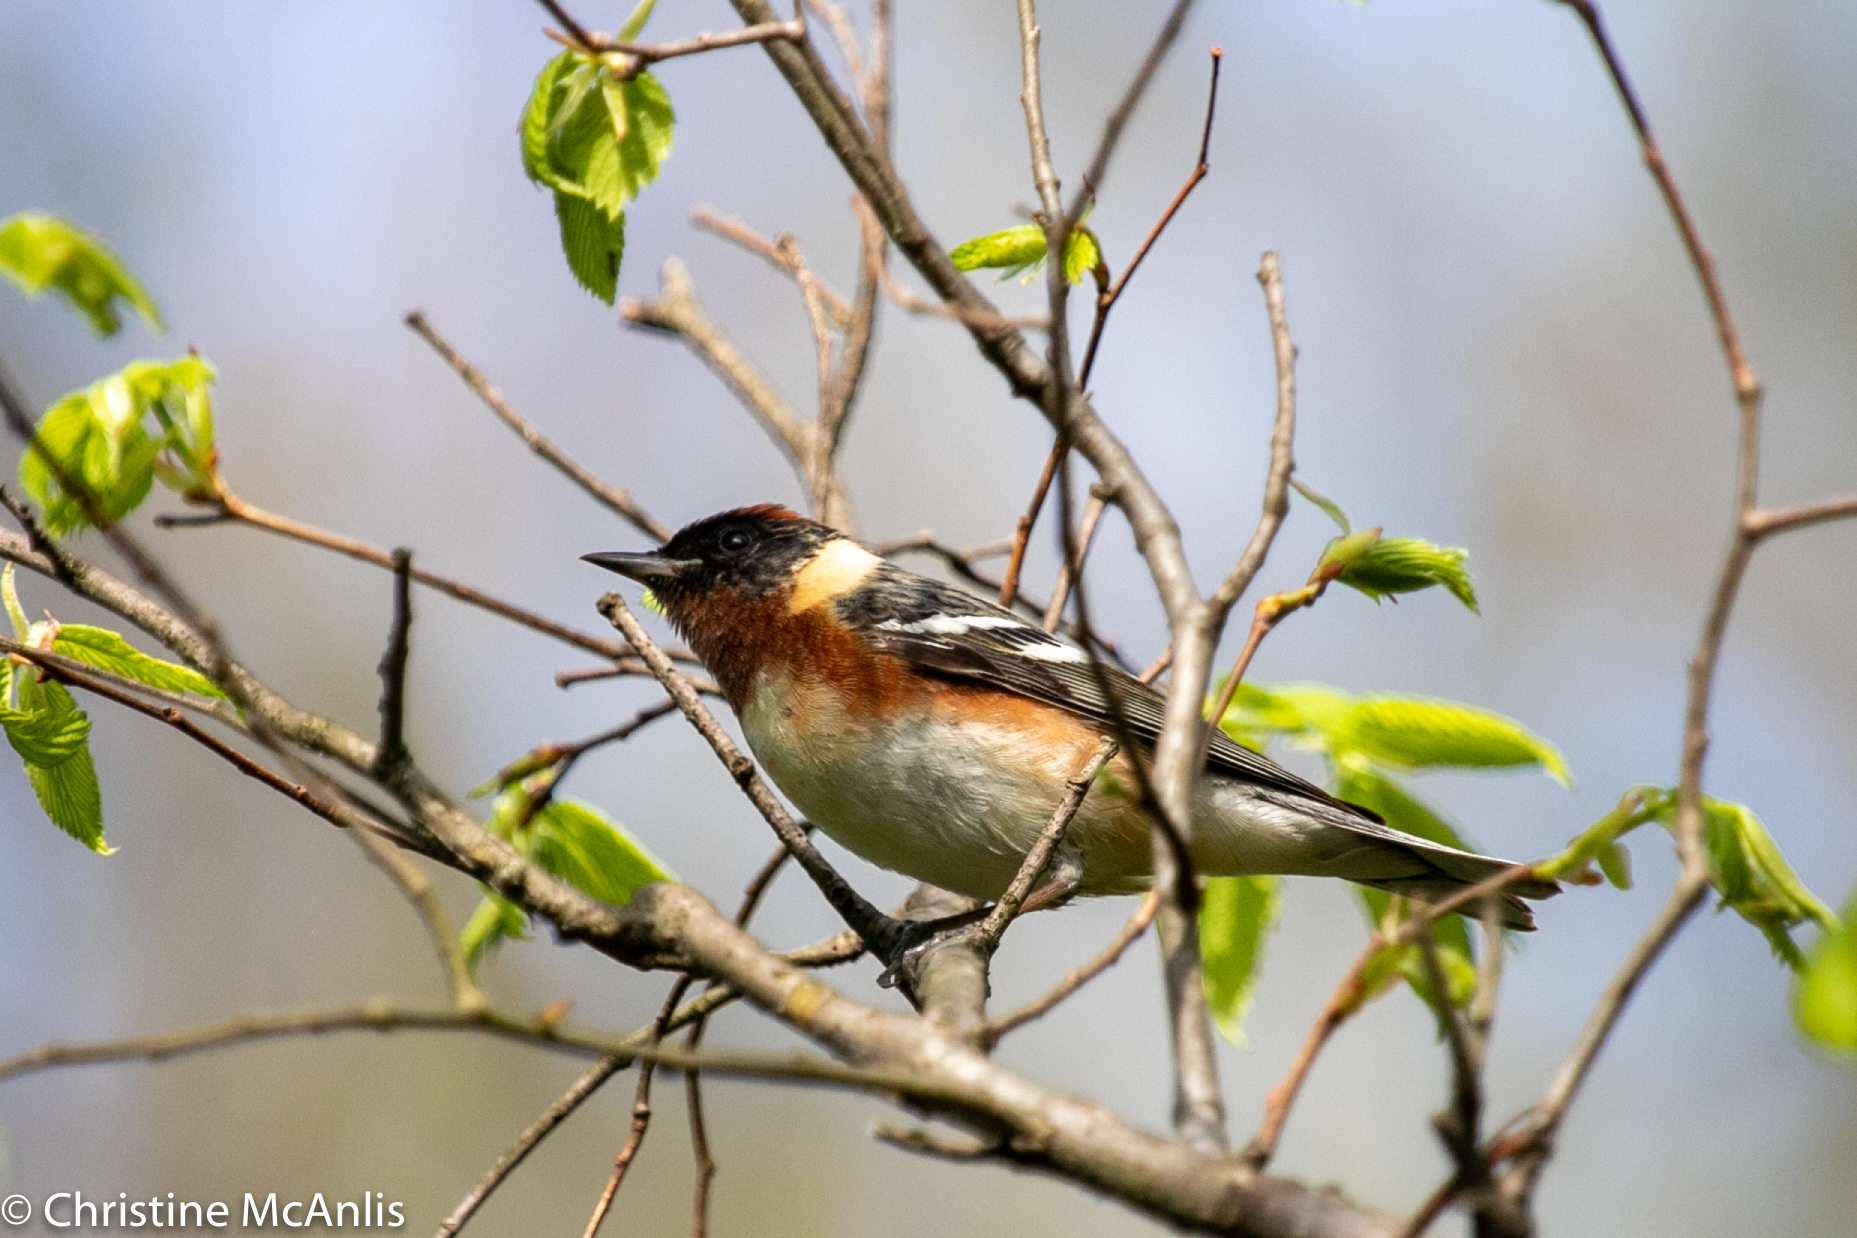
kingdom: Animalia
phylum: Chordata
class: Aves
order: Passeriformes
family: Parulidae
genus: Setophaga
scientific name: Setophaga castanea
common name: Bay-breasted warbler
